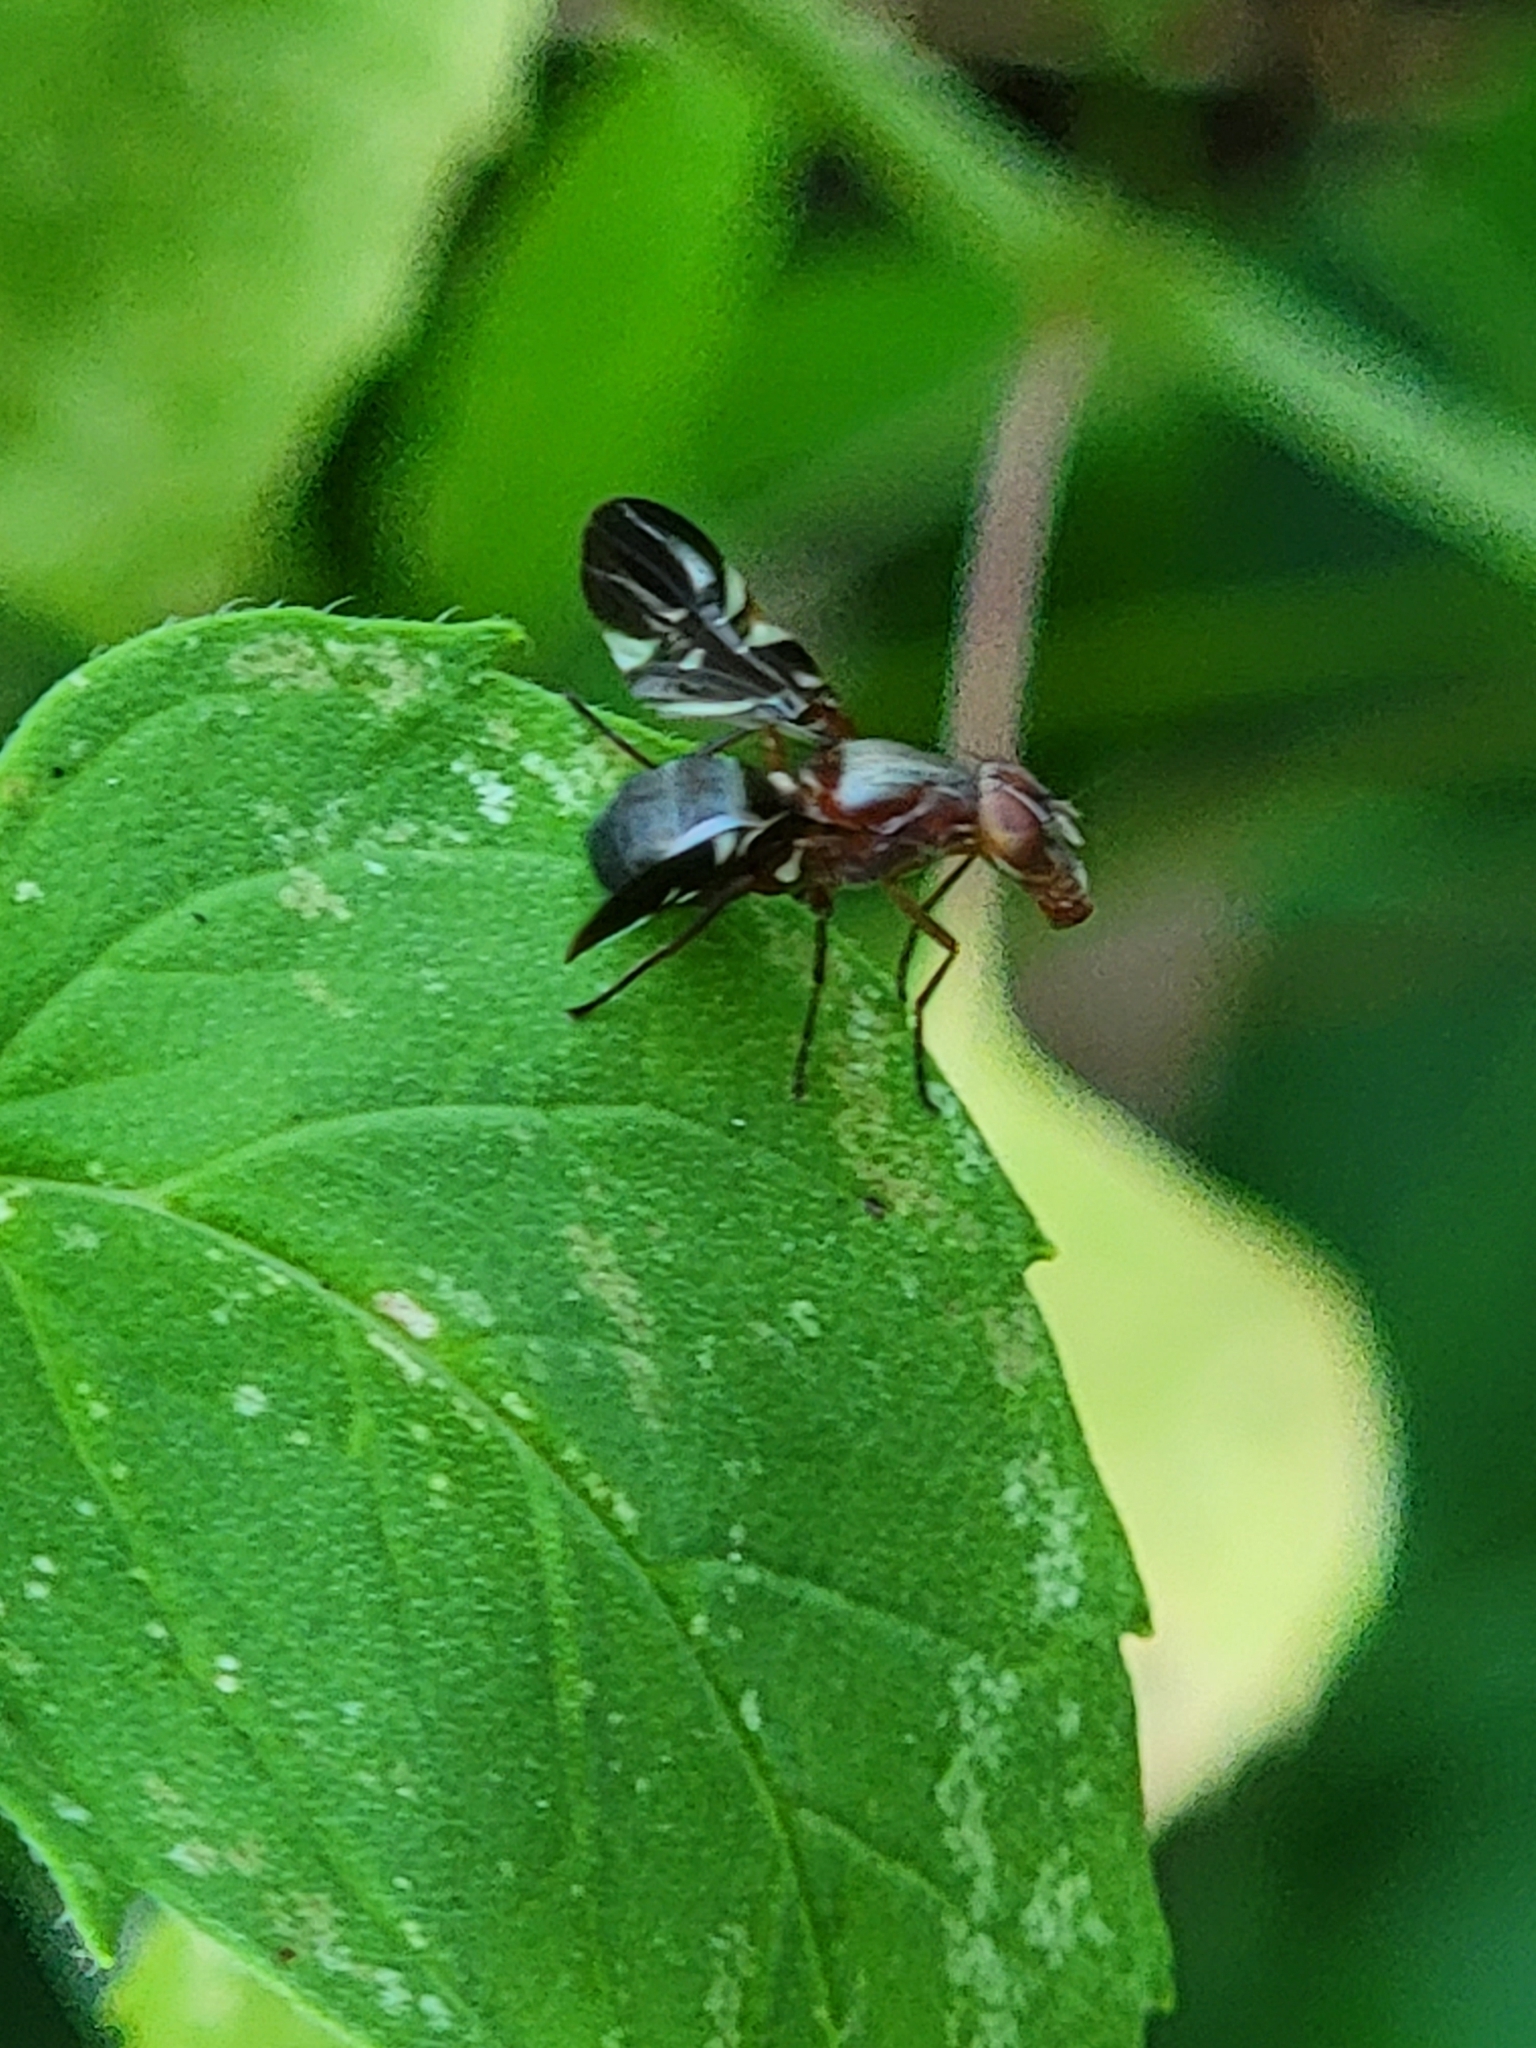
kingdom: Animalia
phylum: Arthropoda
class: Insecta
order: Diptera
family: Ulidiidae
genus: Delphinia
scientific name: Delphinia picta
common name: Common picture-winged fly
